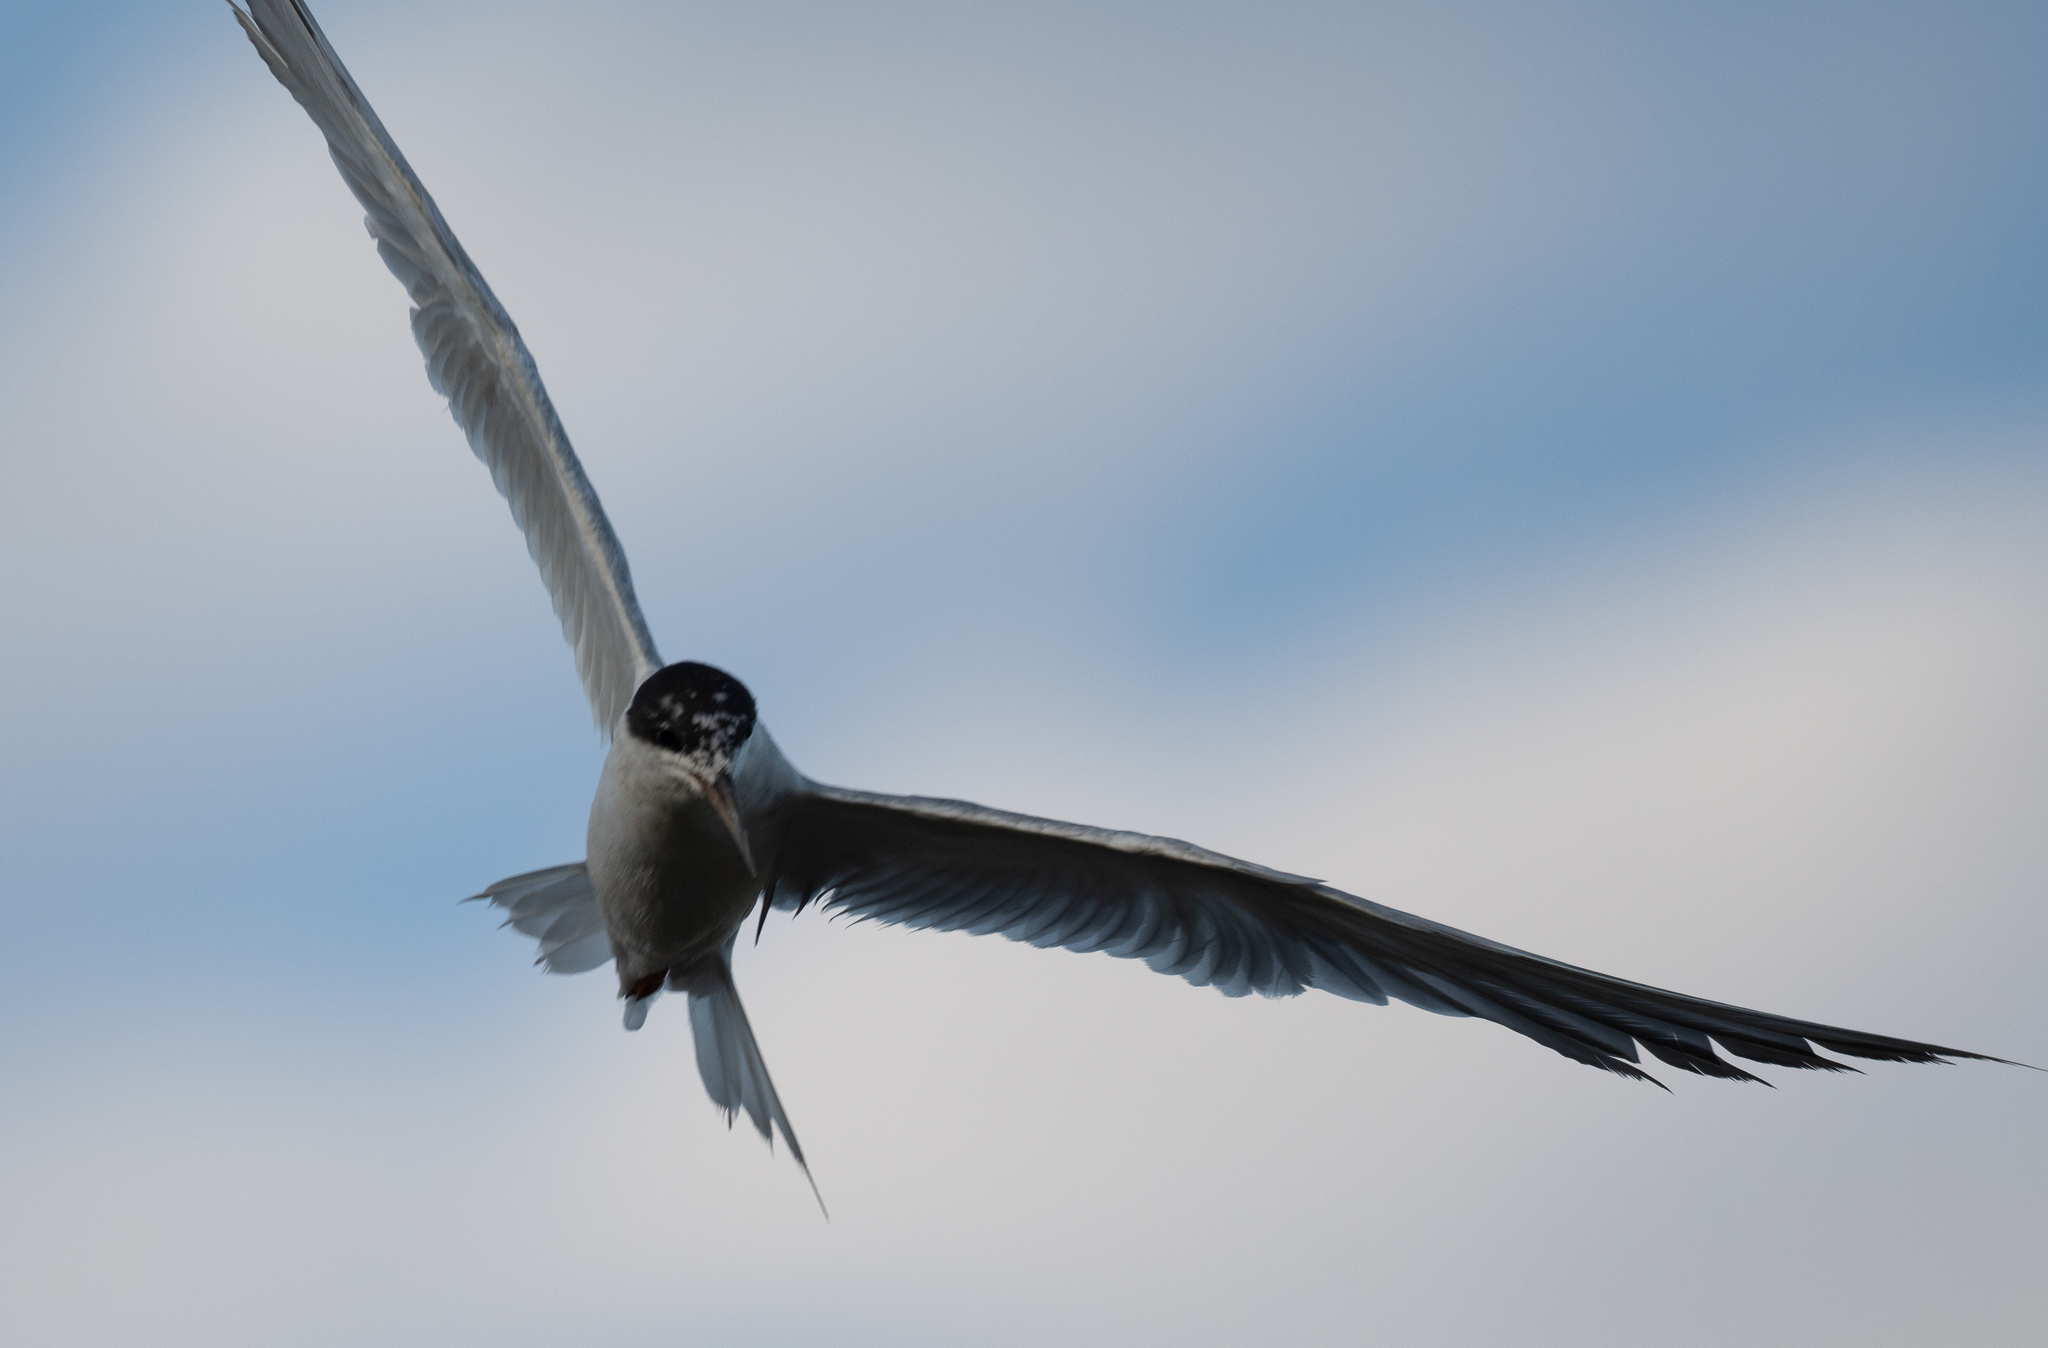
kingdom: Animalia
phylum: Chordata
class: Aves
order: Charadriiformes
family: Laridae
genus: Sterna
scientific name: Sterna forsteri
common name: Forster's tern
